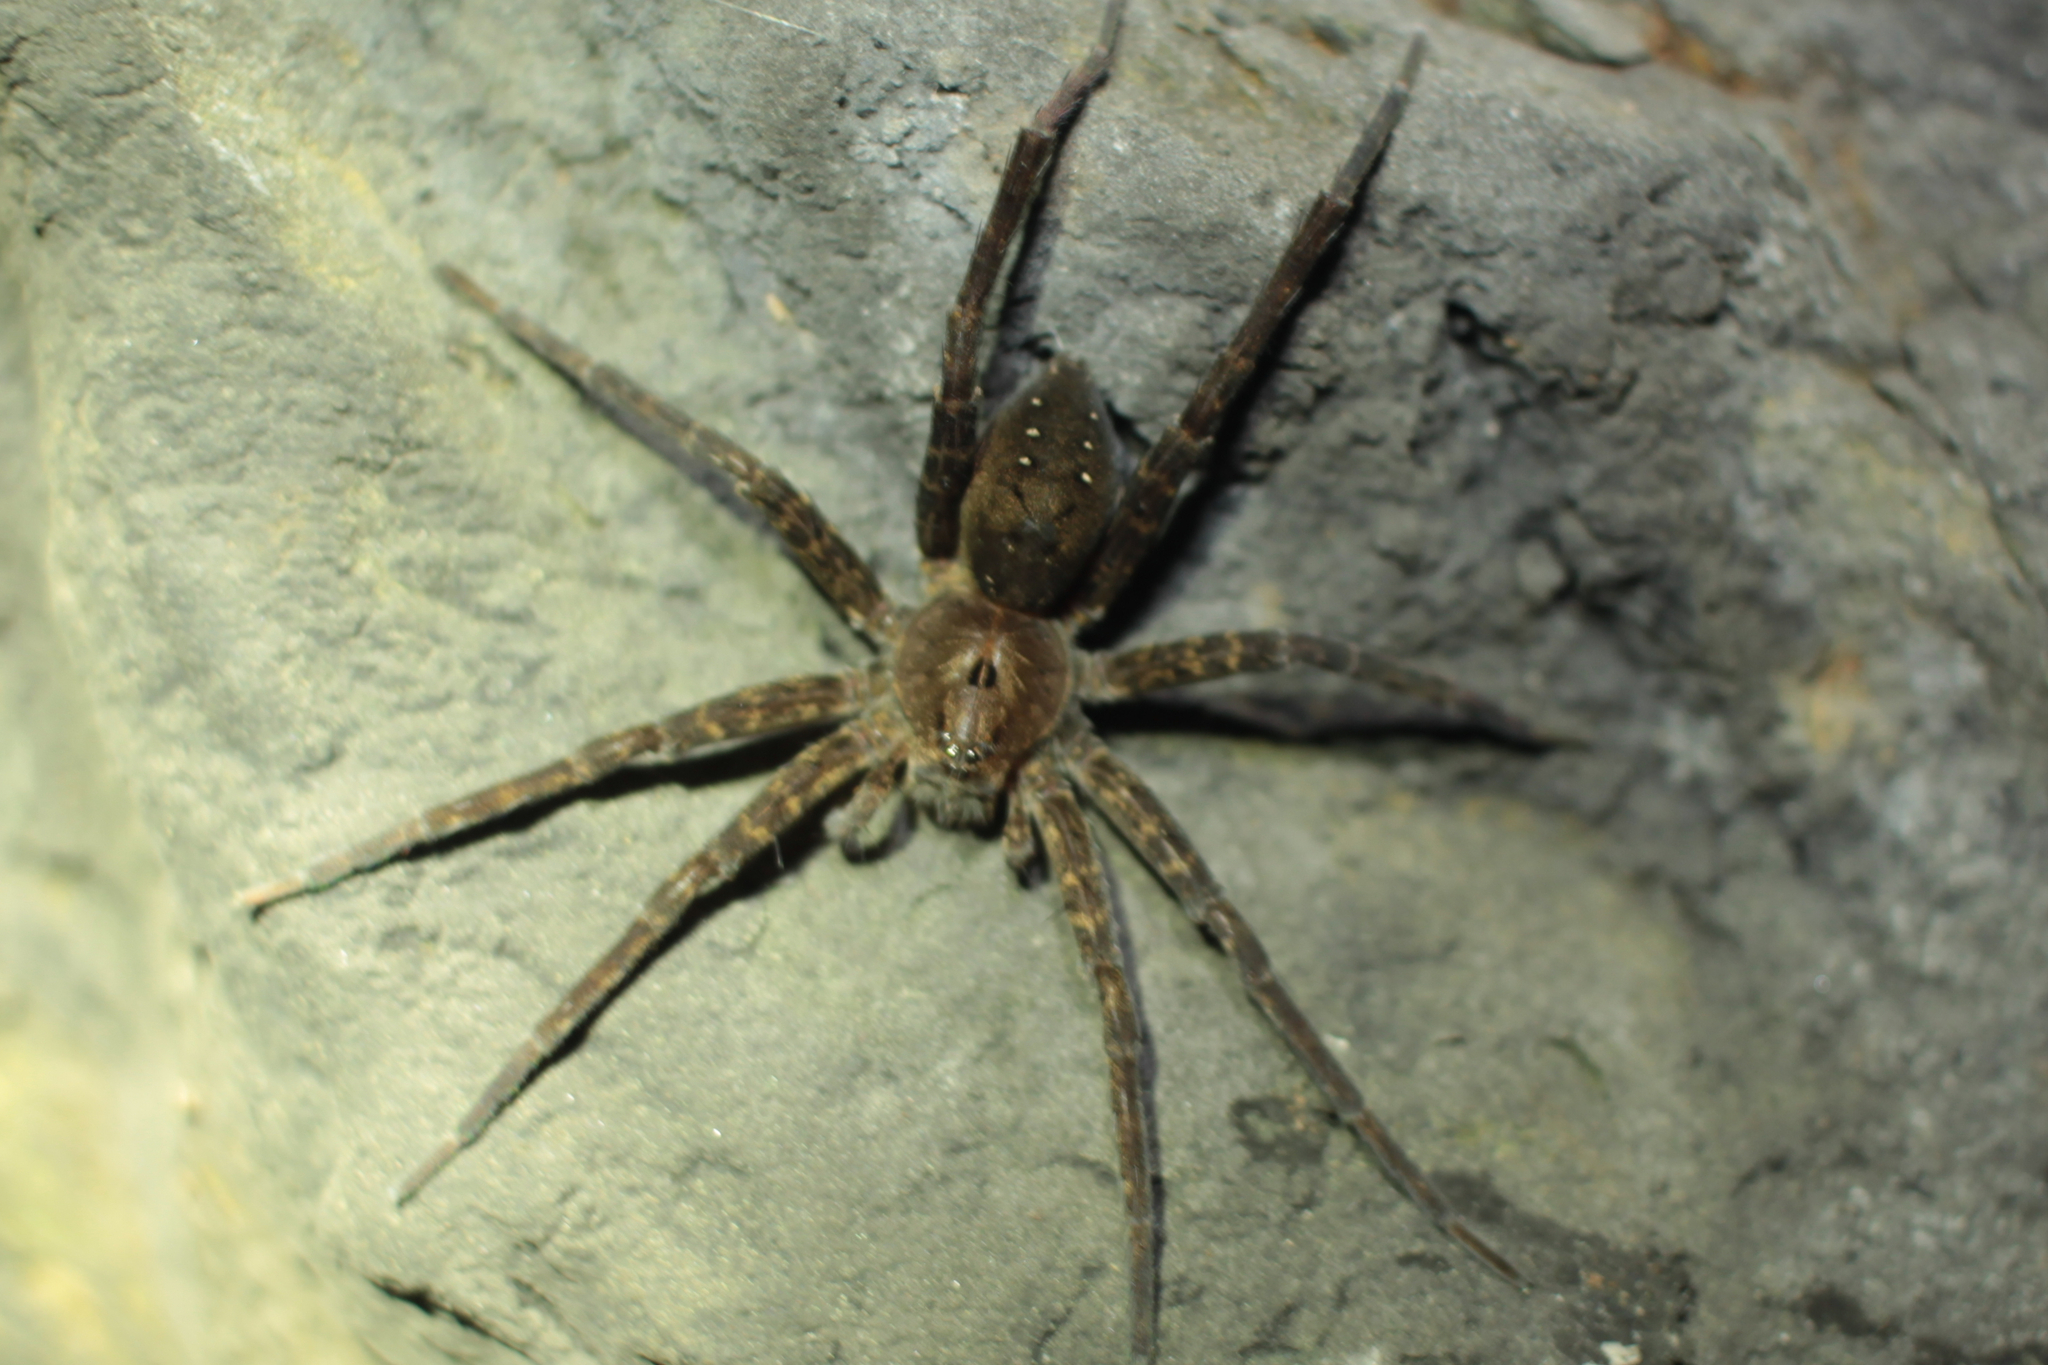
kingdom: Animalia
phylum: Arthropoda
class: Arachnida
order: Araneae
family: Pisauridae
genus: Dolomedes
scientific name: Dolomedes vittatus
